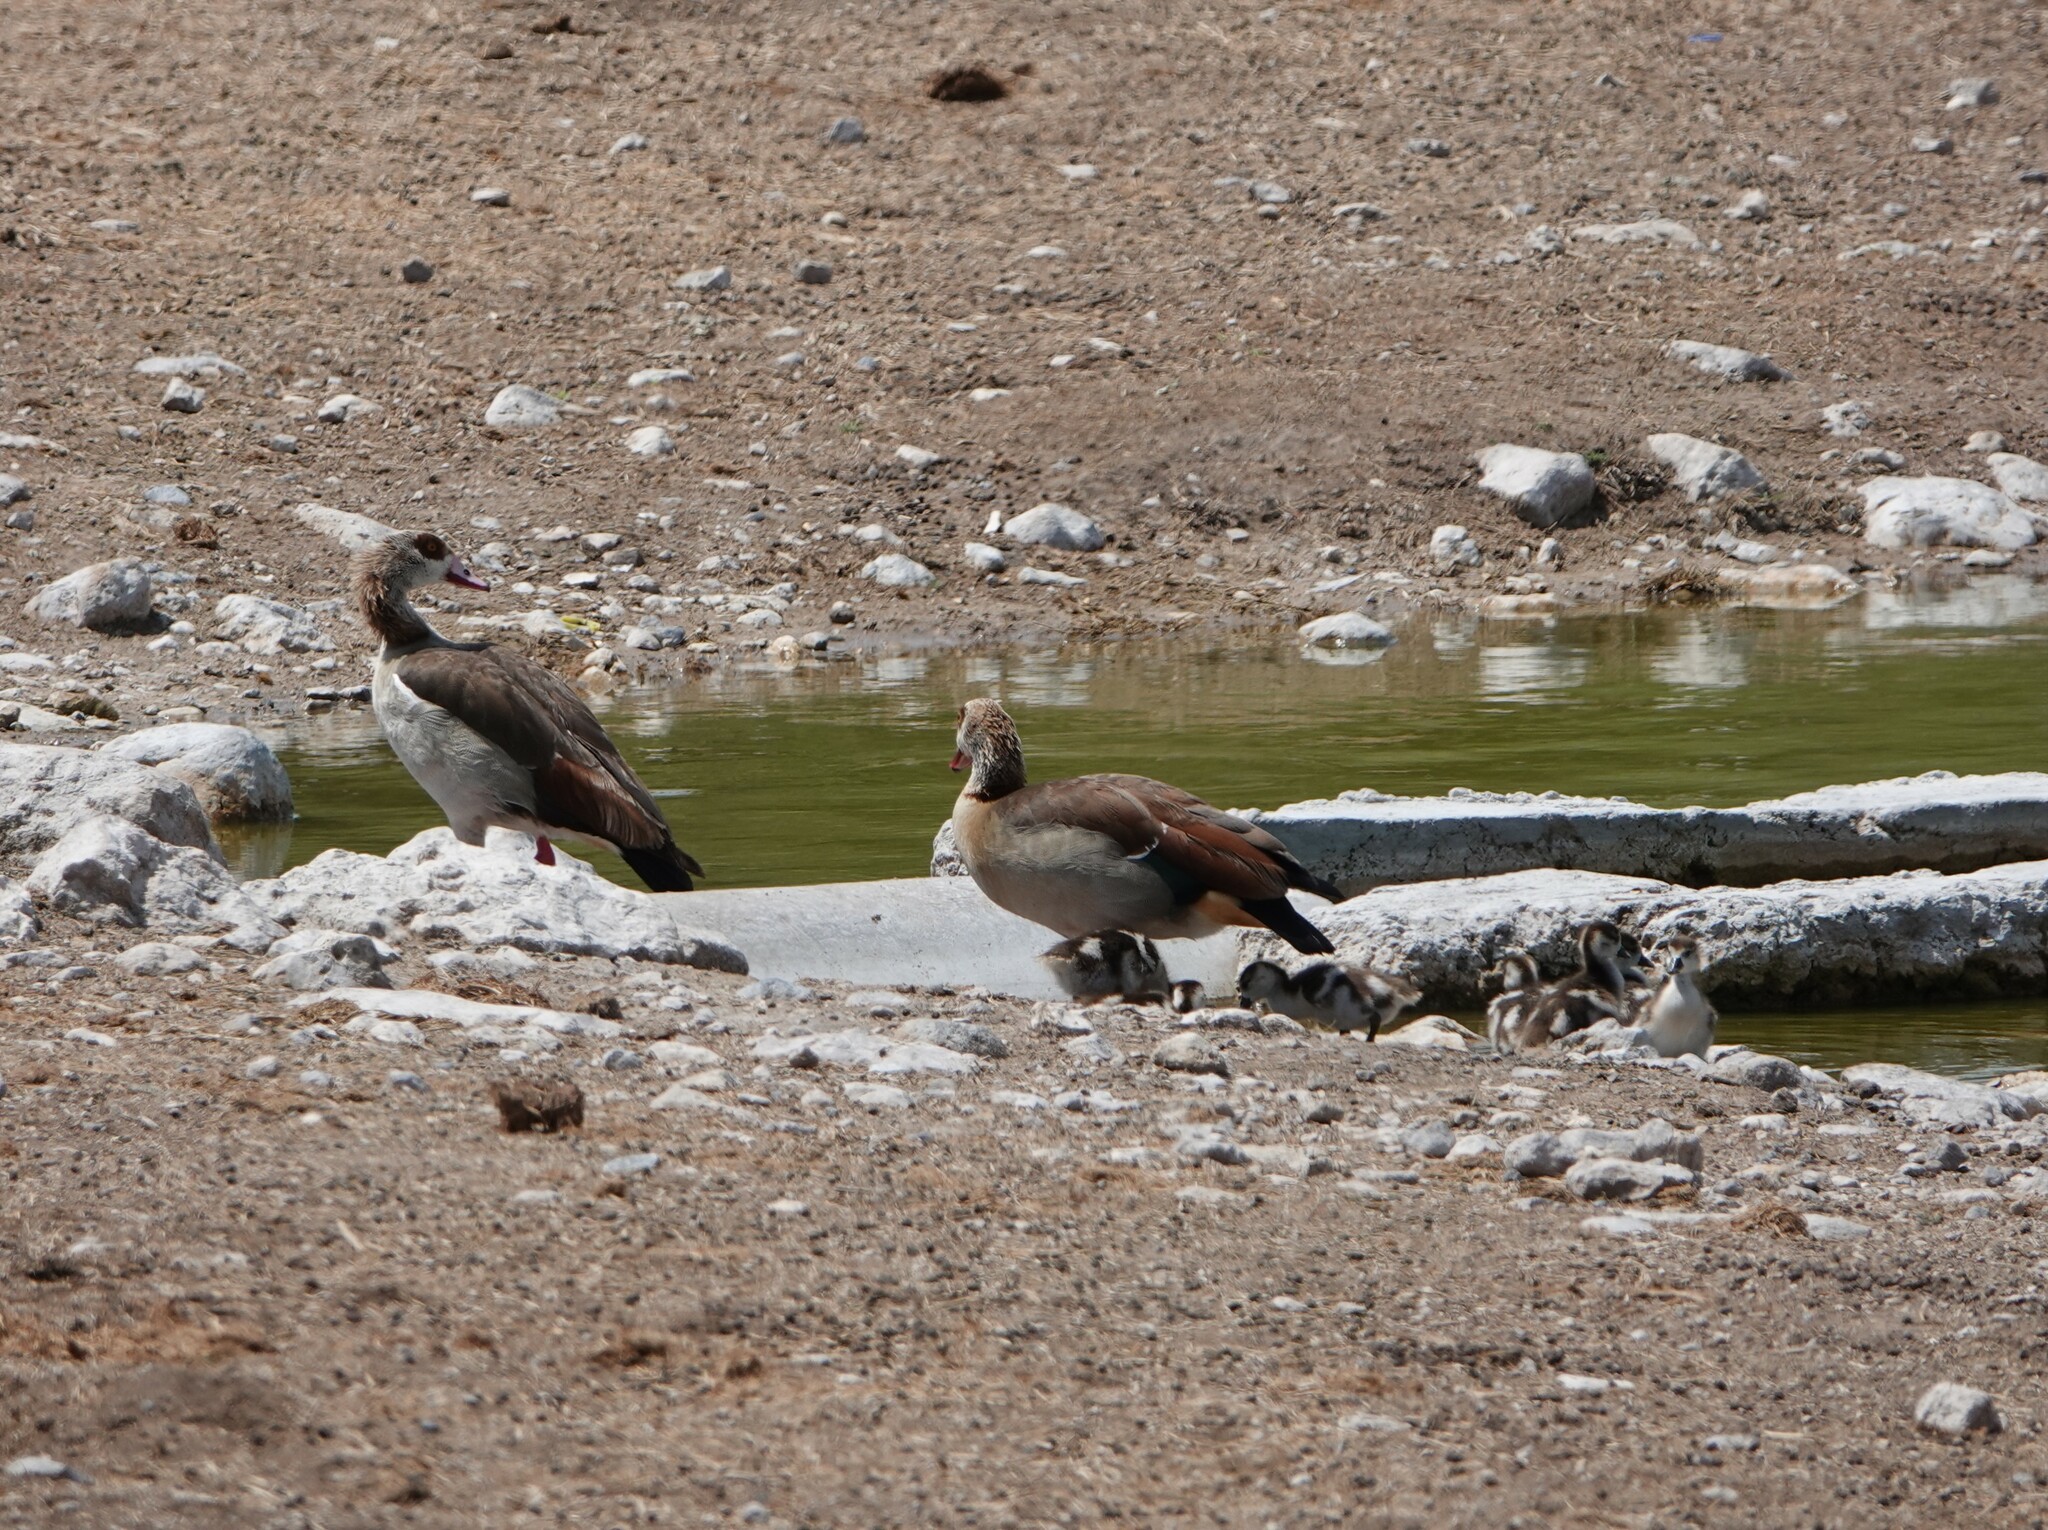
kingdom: Animalia
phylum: Chordata
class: Aves
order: Anseriformes
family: Anatidae
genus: Alopochen
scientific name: Alopochen aegyptiaca
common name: Egyptian goose
